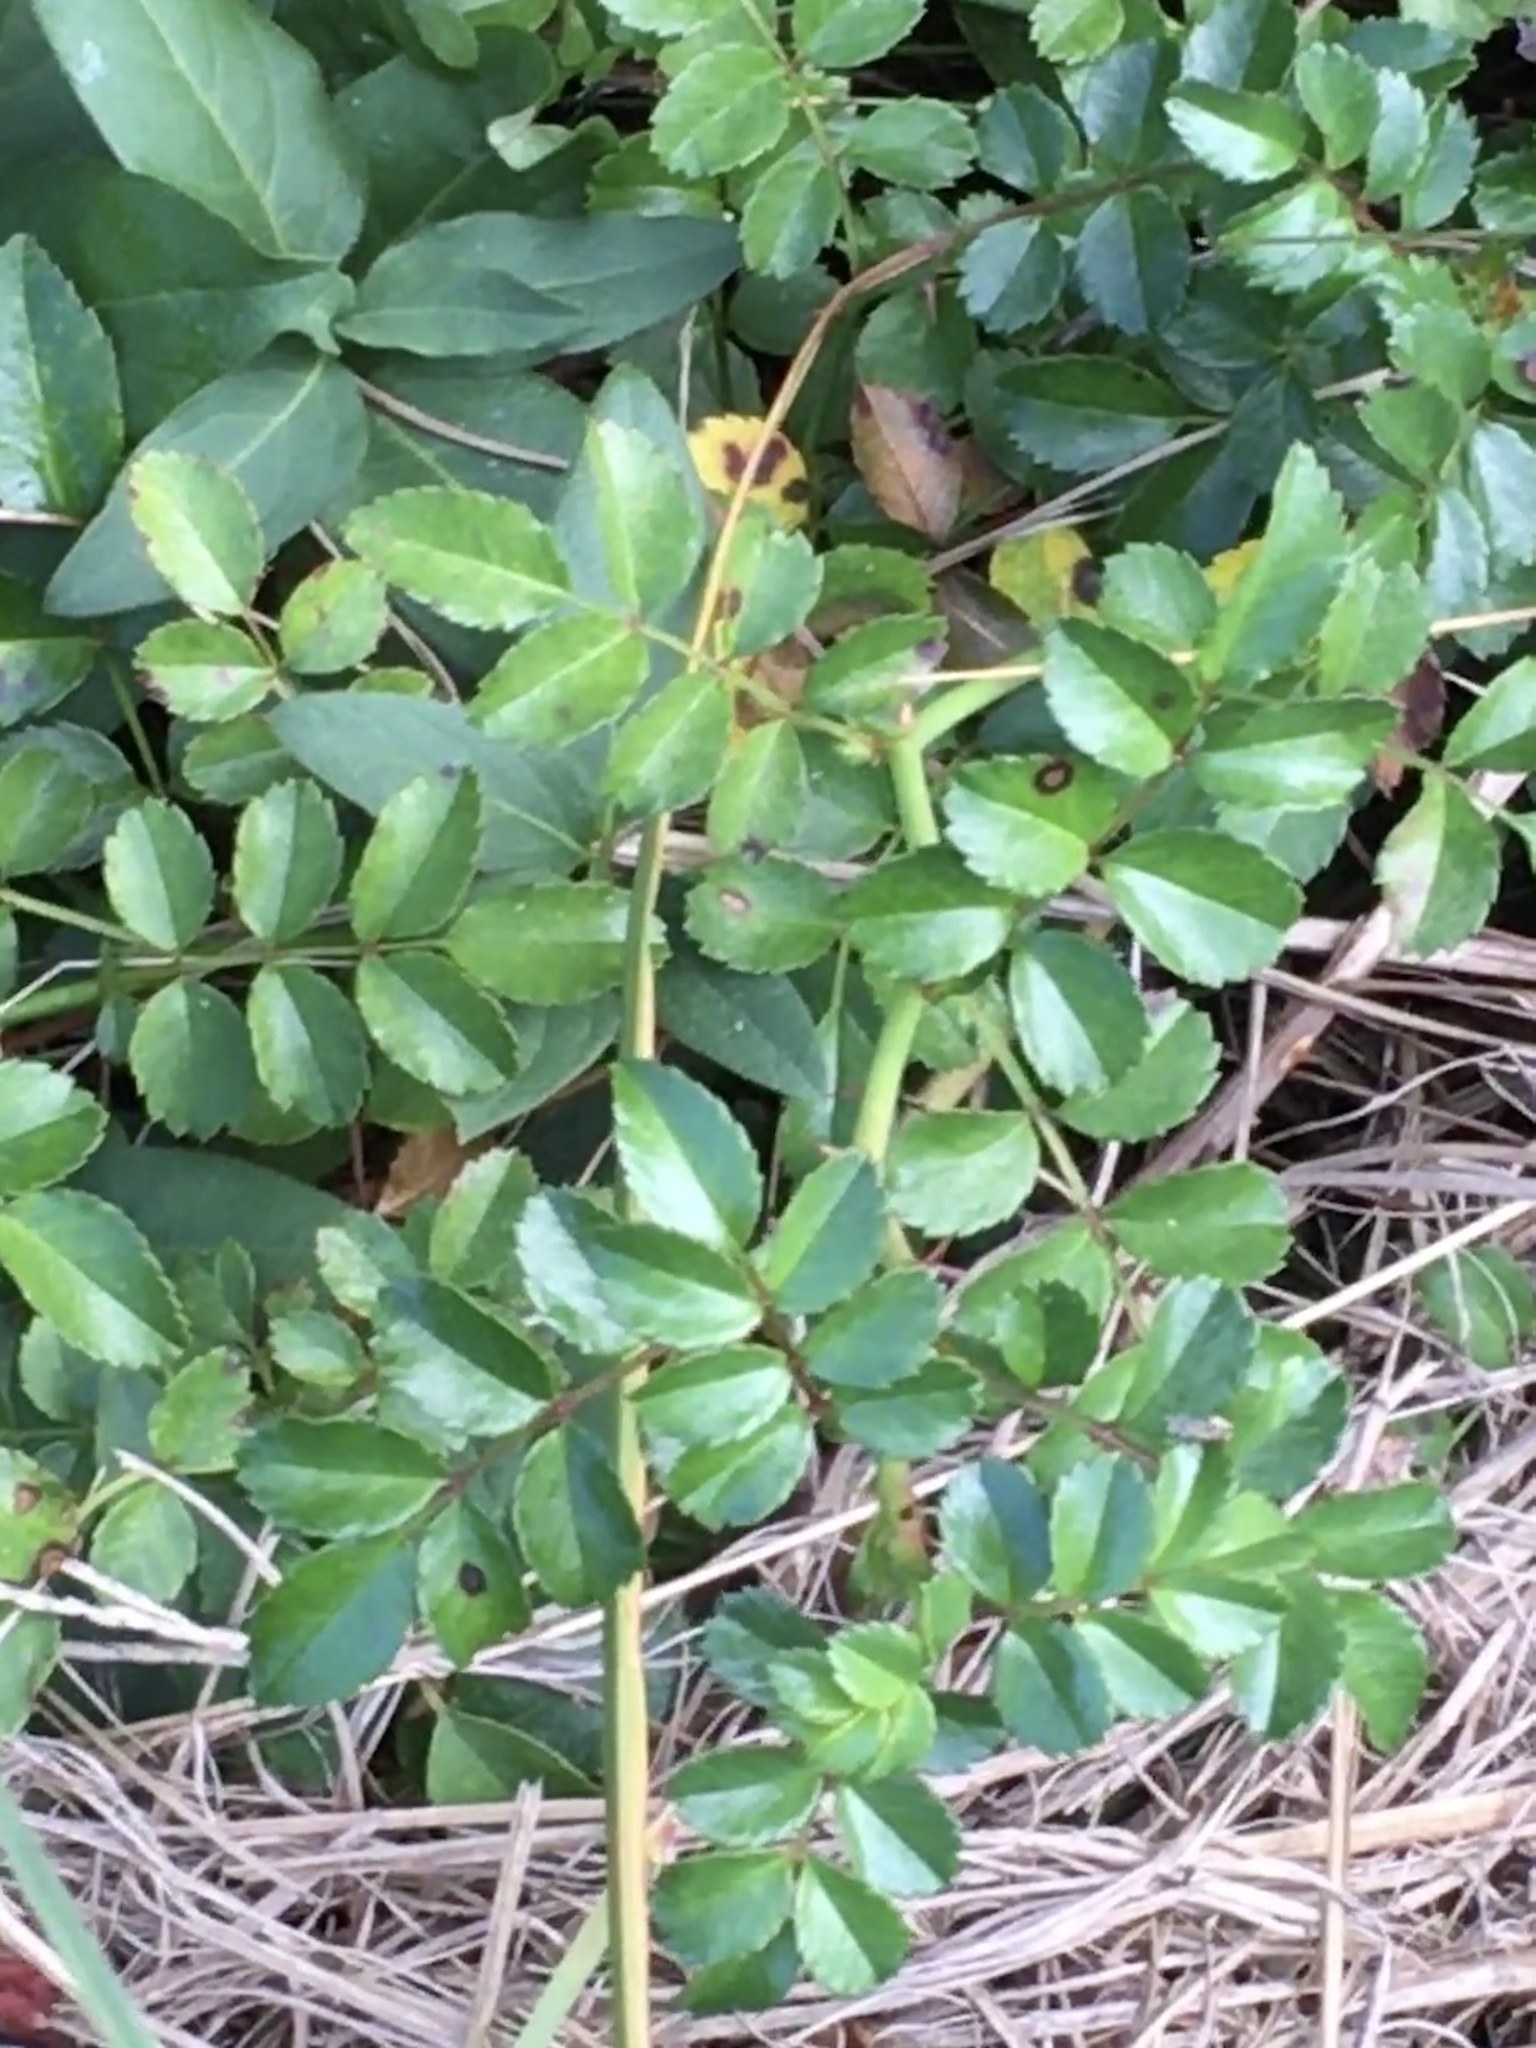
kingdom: Plantae
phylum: Tracheophyta
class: Magnoliopsida
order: Rosales
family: Rosaceae
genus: Rosa
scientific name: Rosa multiflora
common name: Multiflora rose
